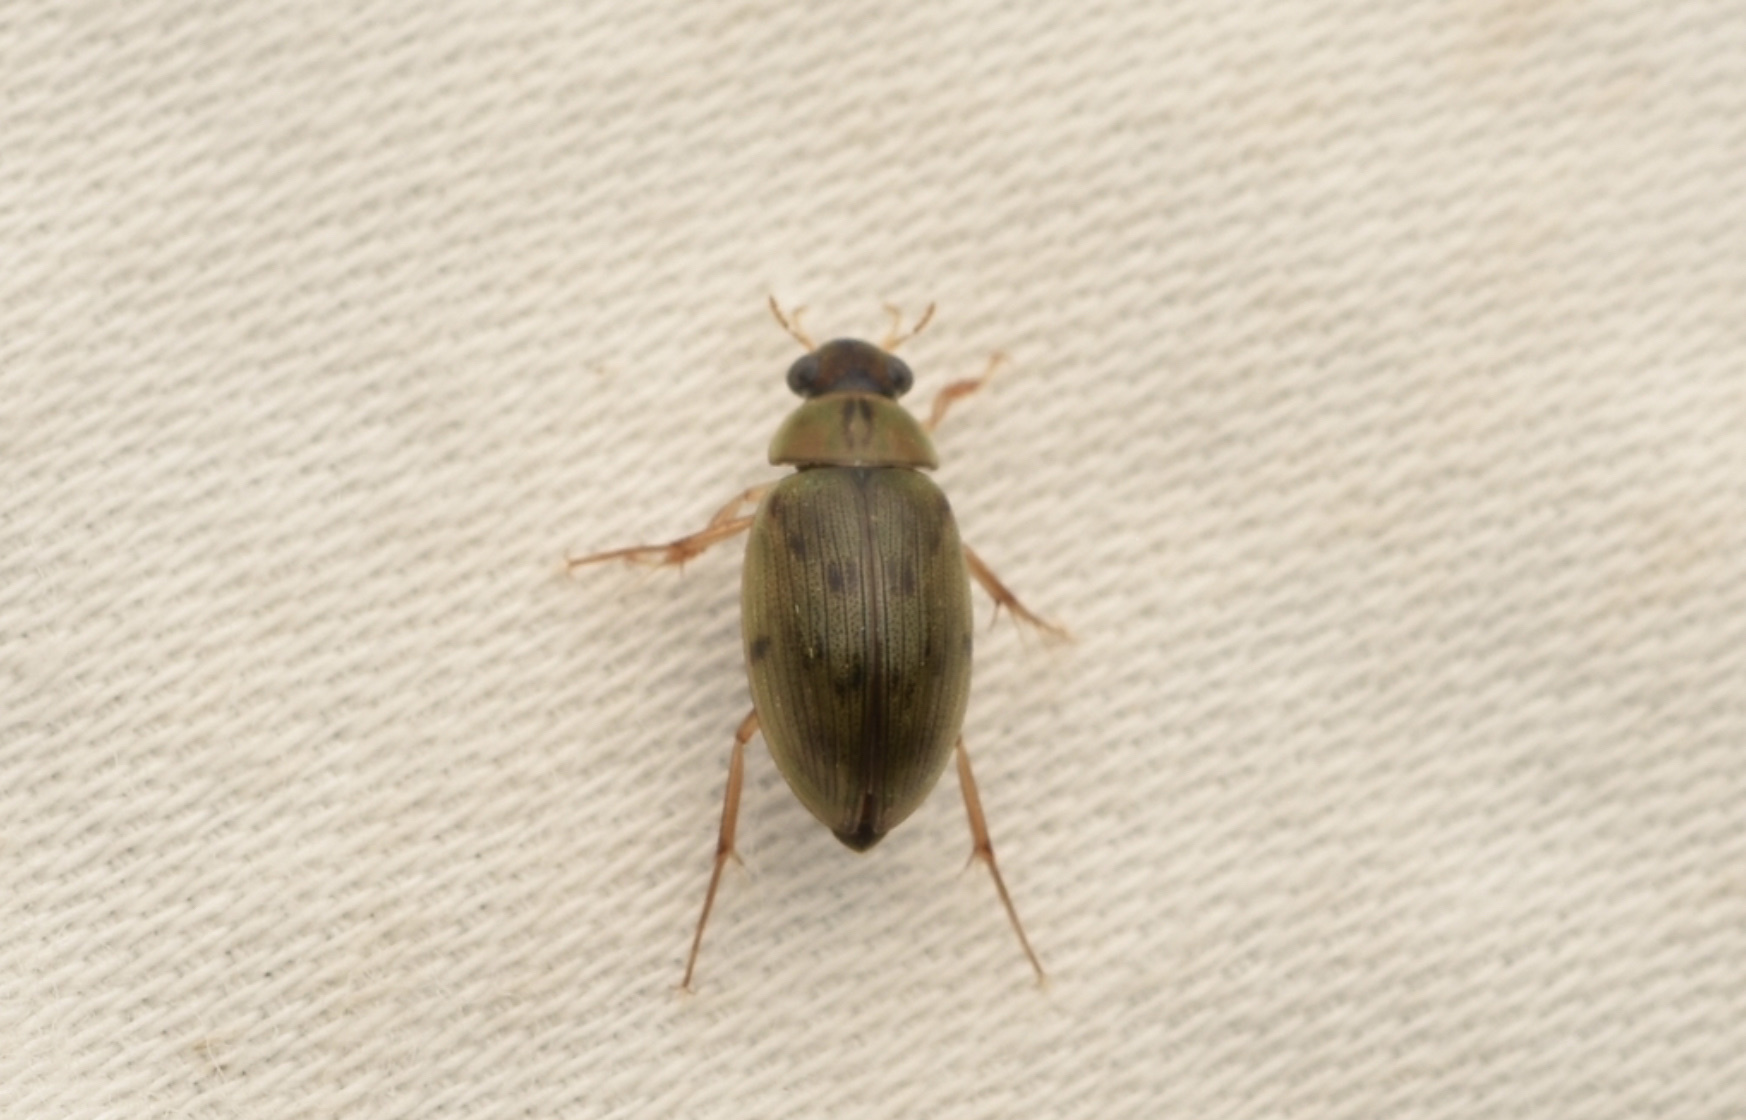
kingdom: Animalia
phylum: Arthropoda
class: Insecta
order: Coleoptera
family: Hydrophilidae
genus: Berosus
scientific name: Berosus
